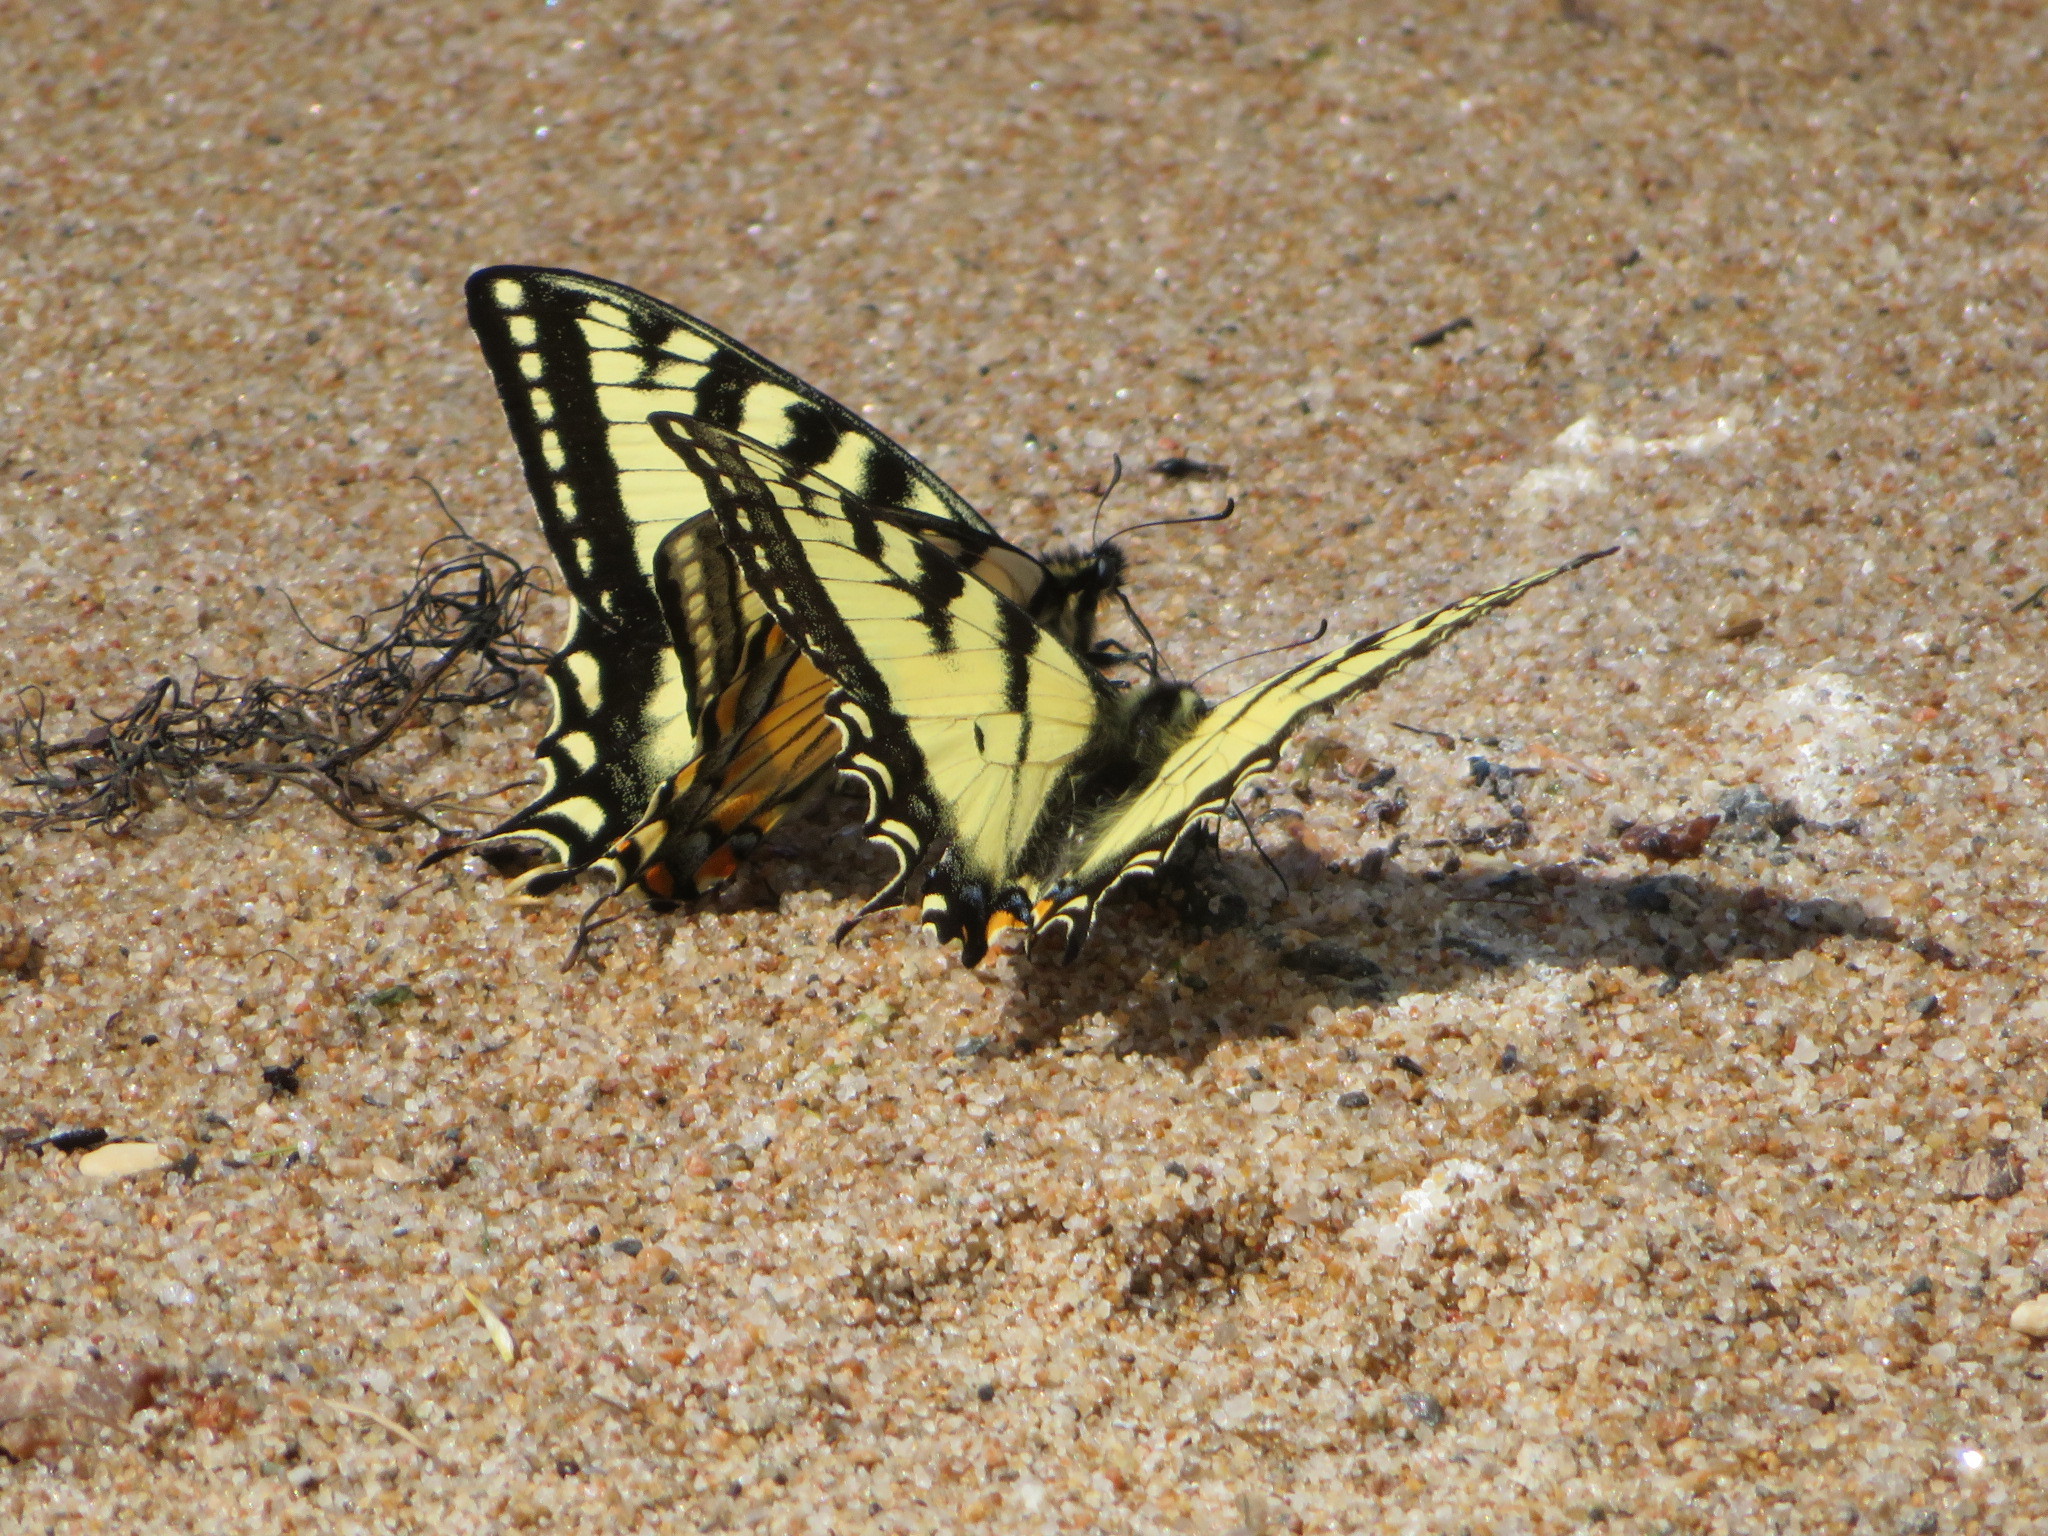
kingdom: Animalia
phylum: Arthropoda
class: Insecta
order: Lepidoptera
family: Papilionidae
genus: Papilio
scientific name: Papilio canadensis
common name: Canadian tiger swallowtail
